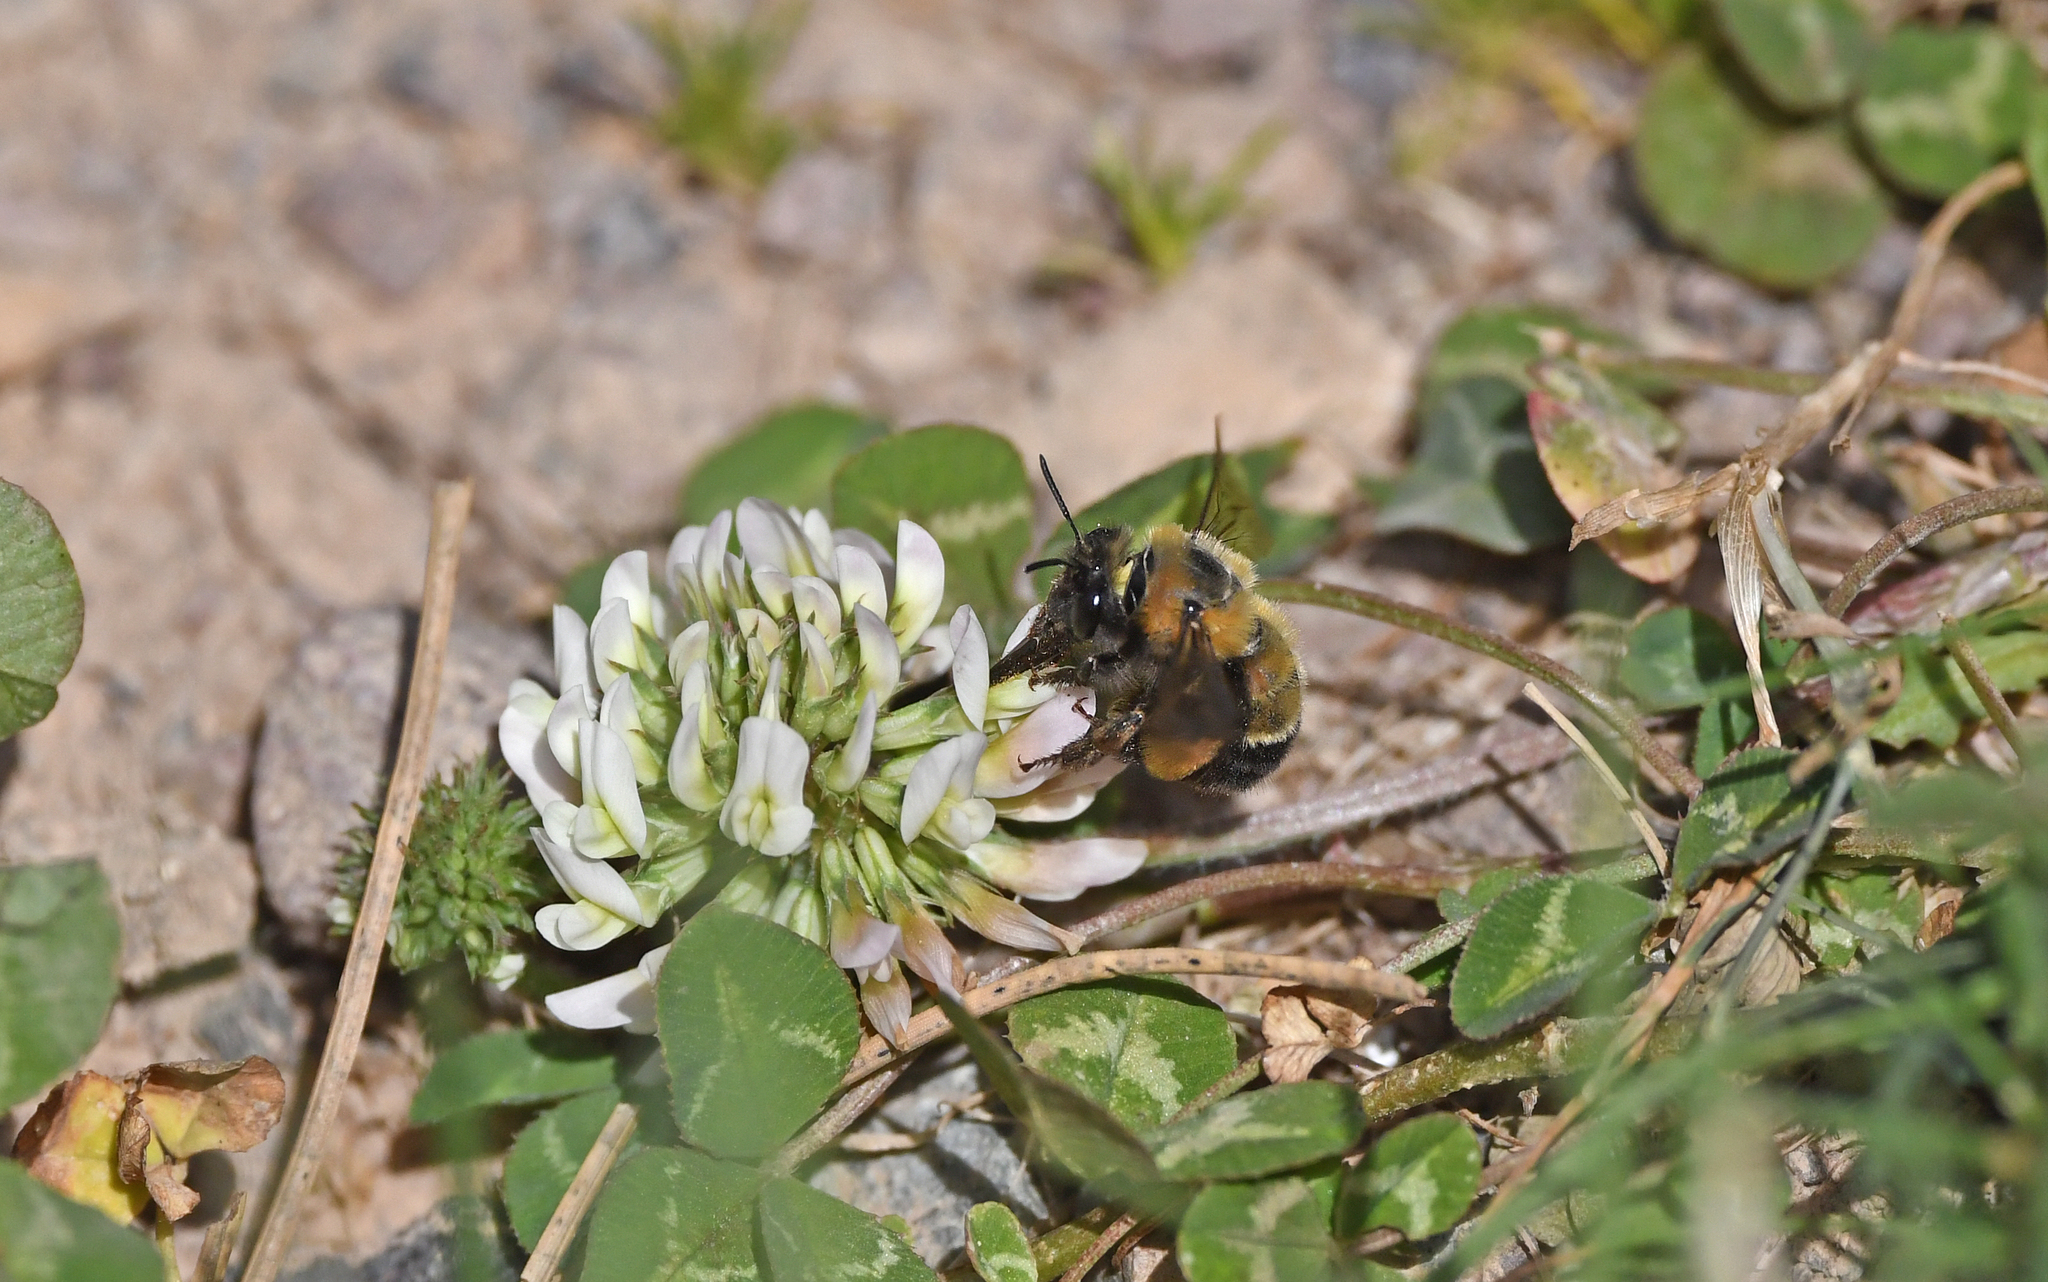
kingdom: Animalia
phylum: Arthropoda
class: Insecta
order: Hymenoptera
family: Apidae
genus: Anthophora
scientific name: Anthophora sichelii
